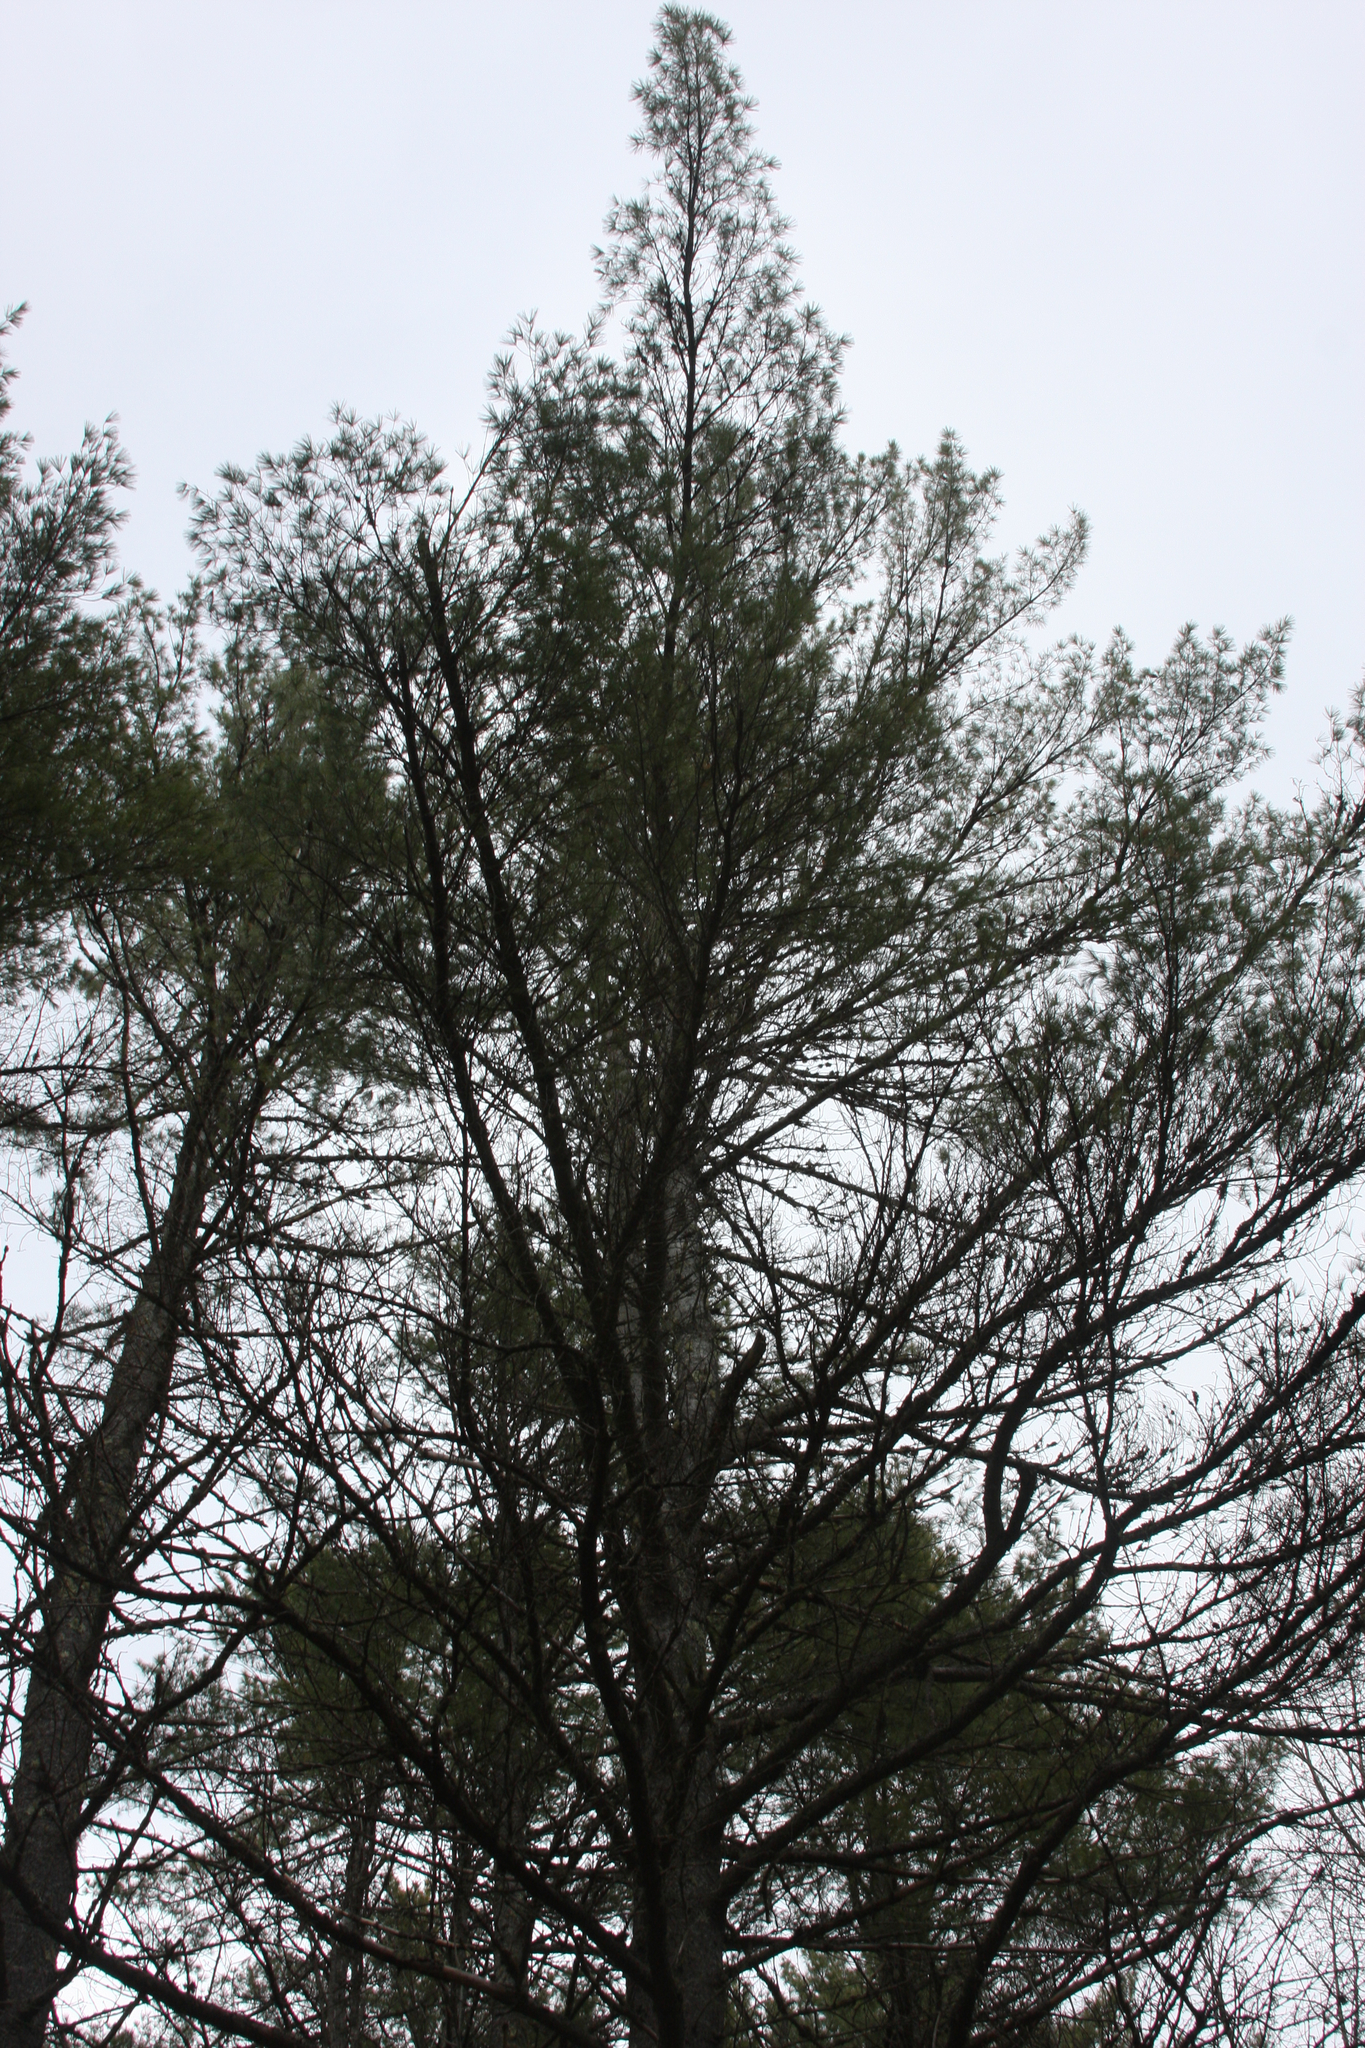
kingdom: Plantae
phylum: Tracheophyta
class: Pinopsida
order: Pinales
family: Pinaceae
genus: Pinus
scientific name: Pinus strobus
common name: Weymouth pine
